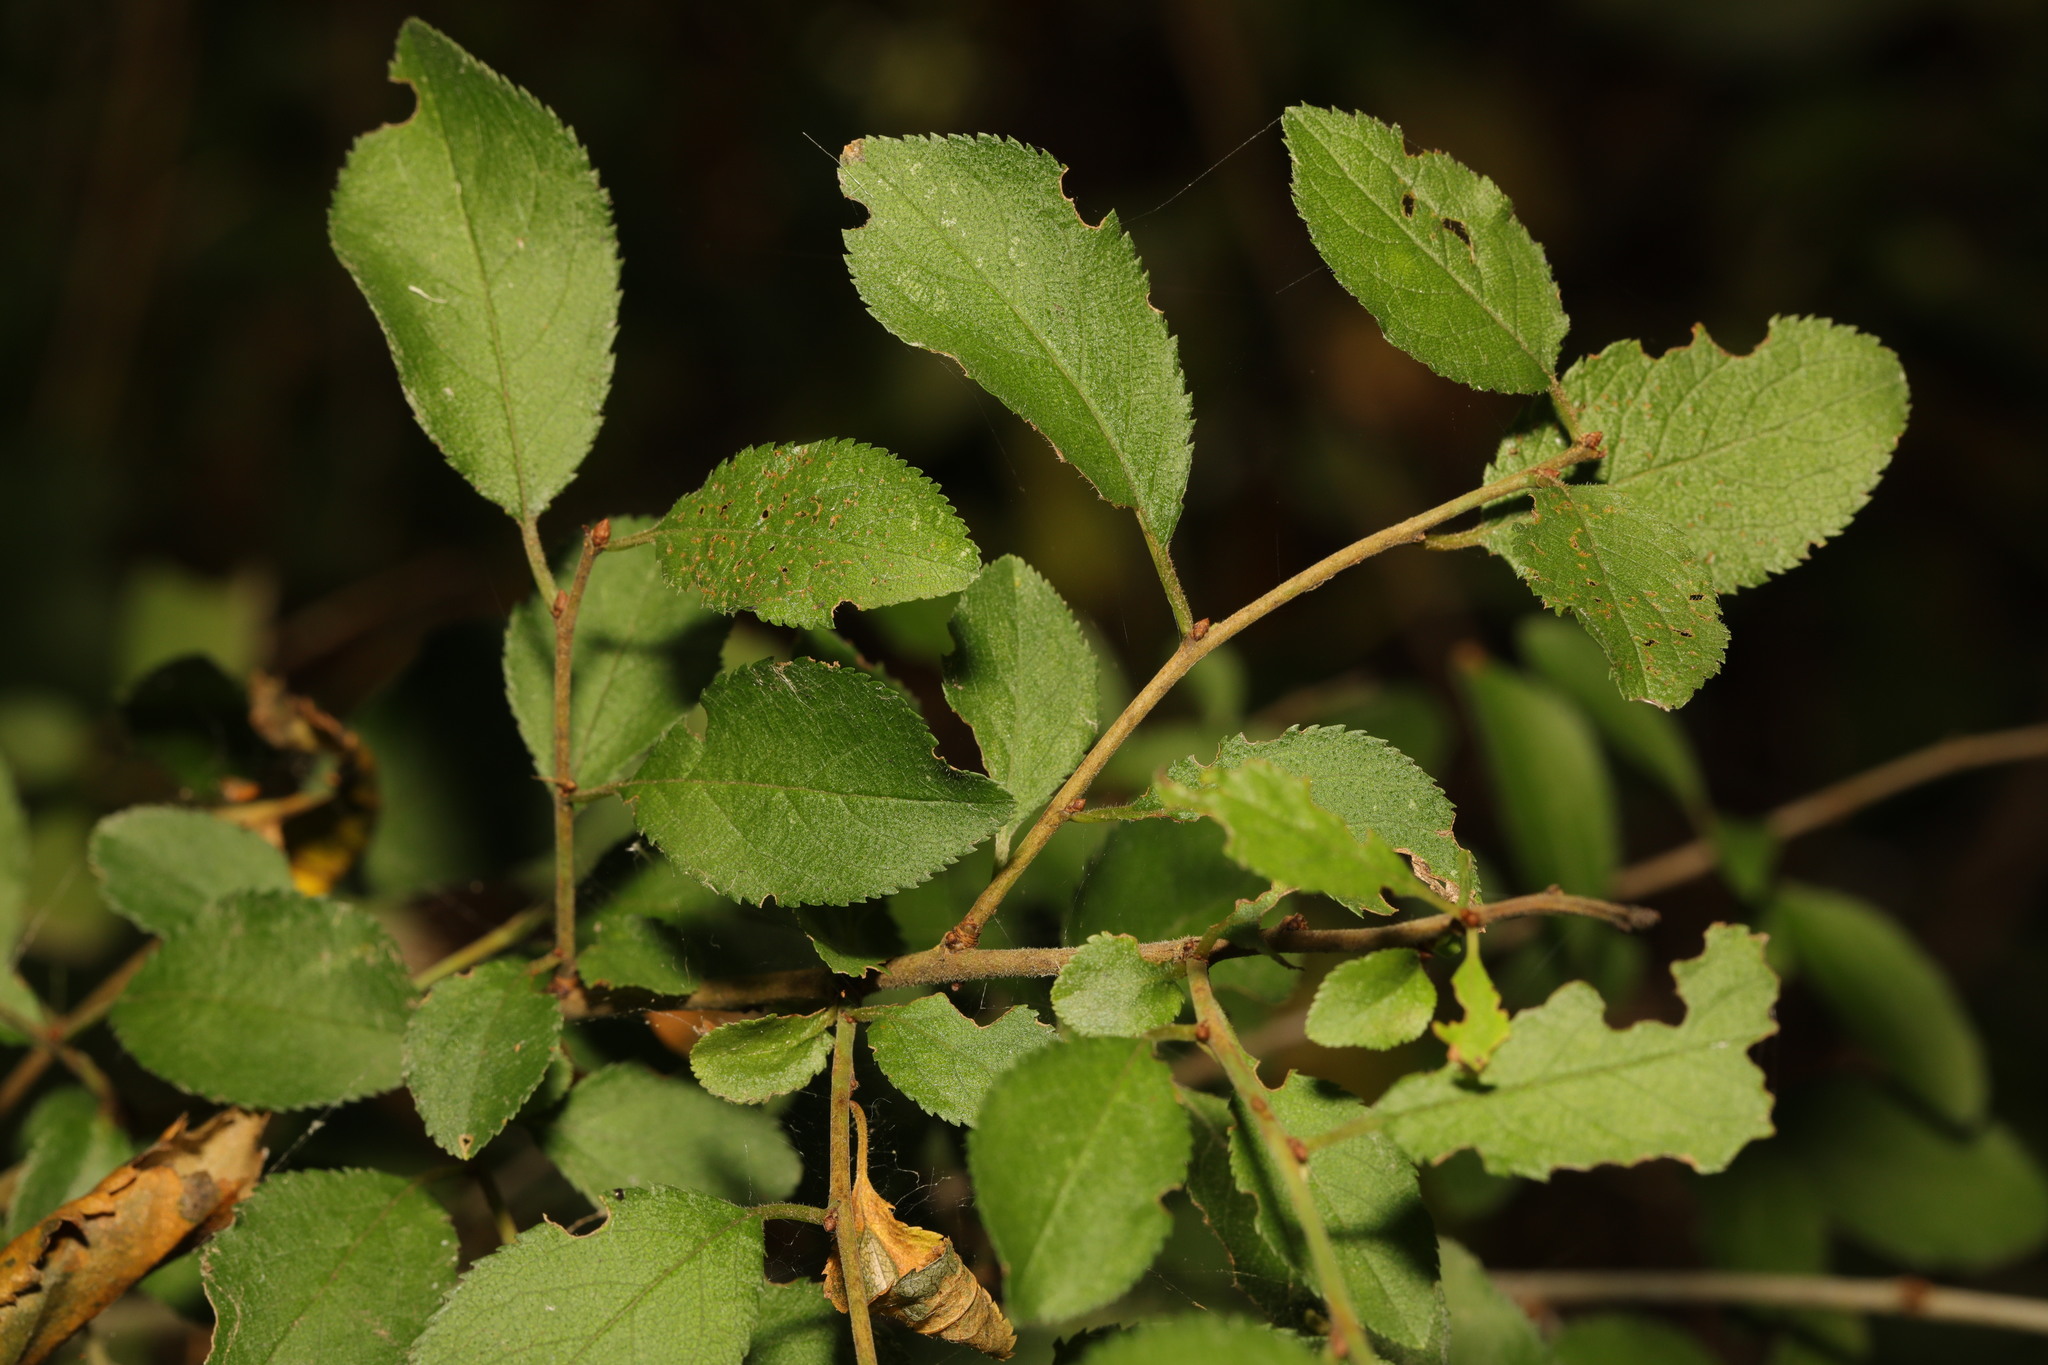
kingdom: Plantae
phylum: Tracheophyta
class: Magnoliopsida
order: Rosales
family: Rosaceae
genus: Prunus
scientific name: Prunus spinosa
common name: Blackthorn
